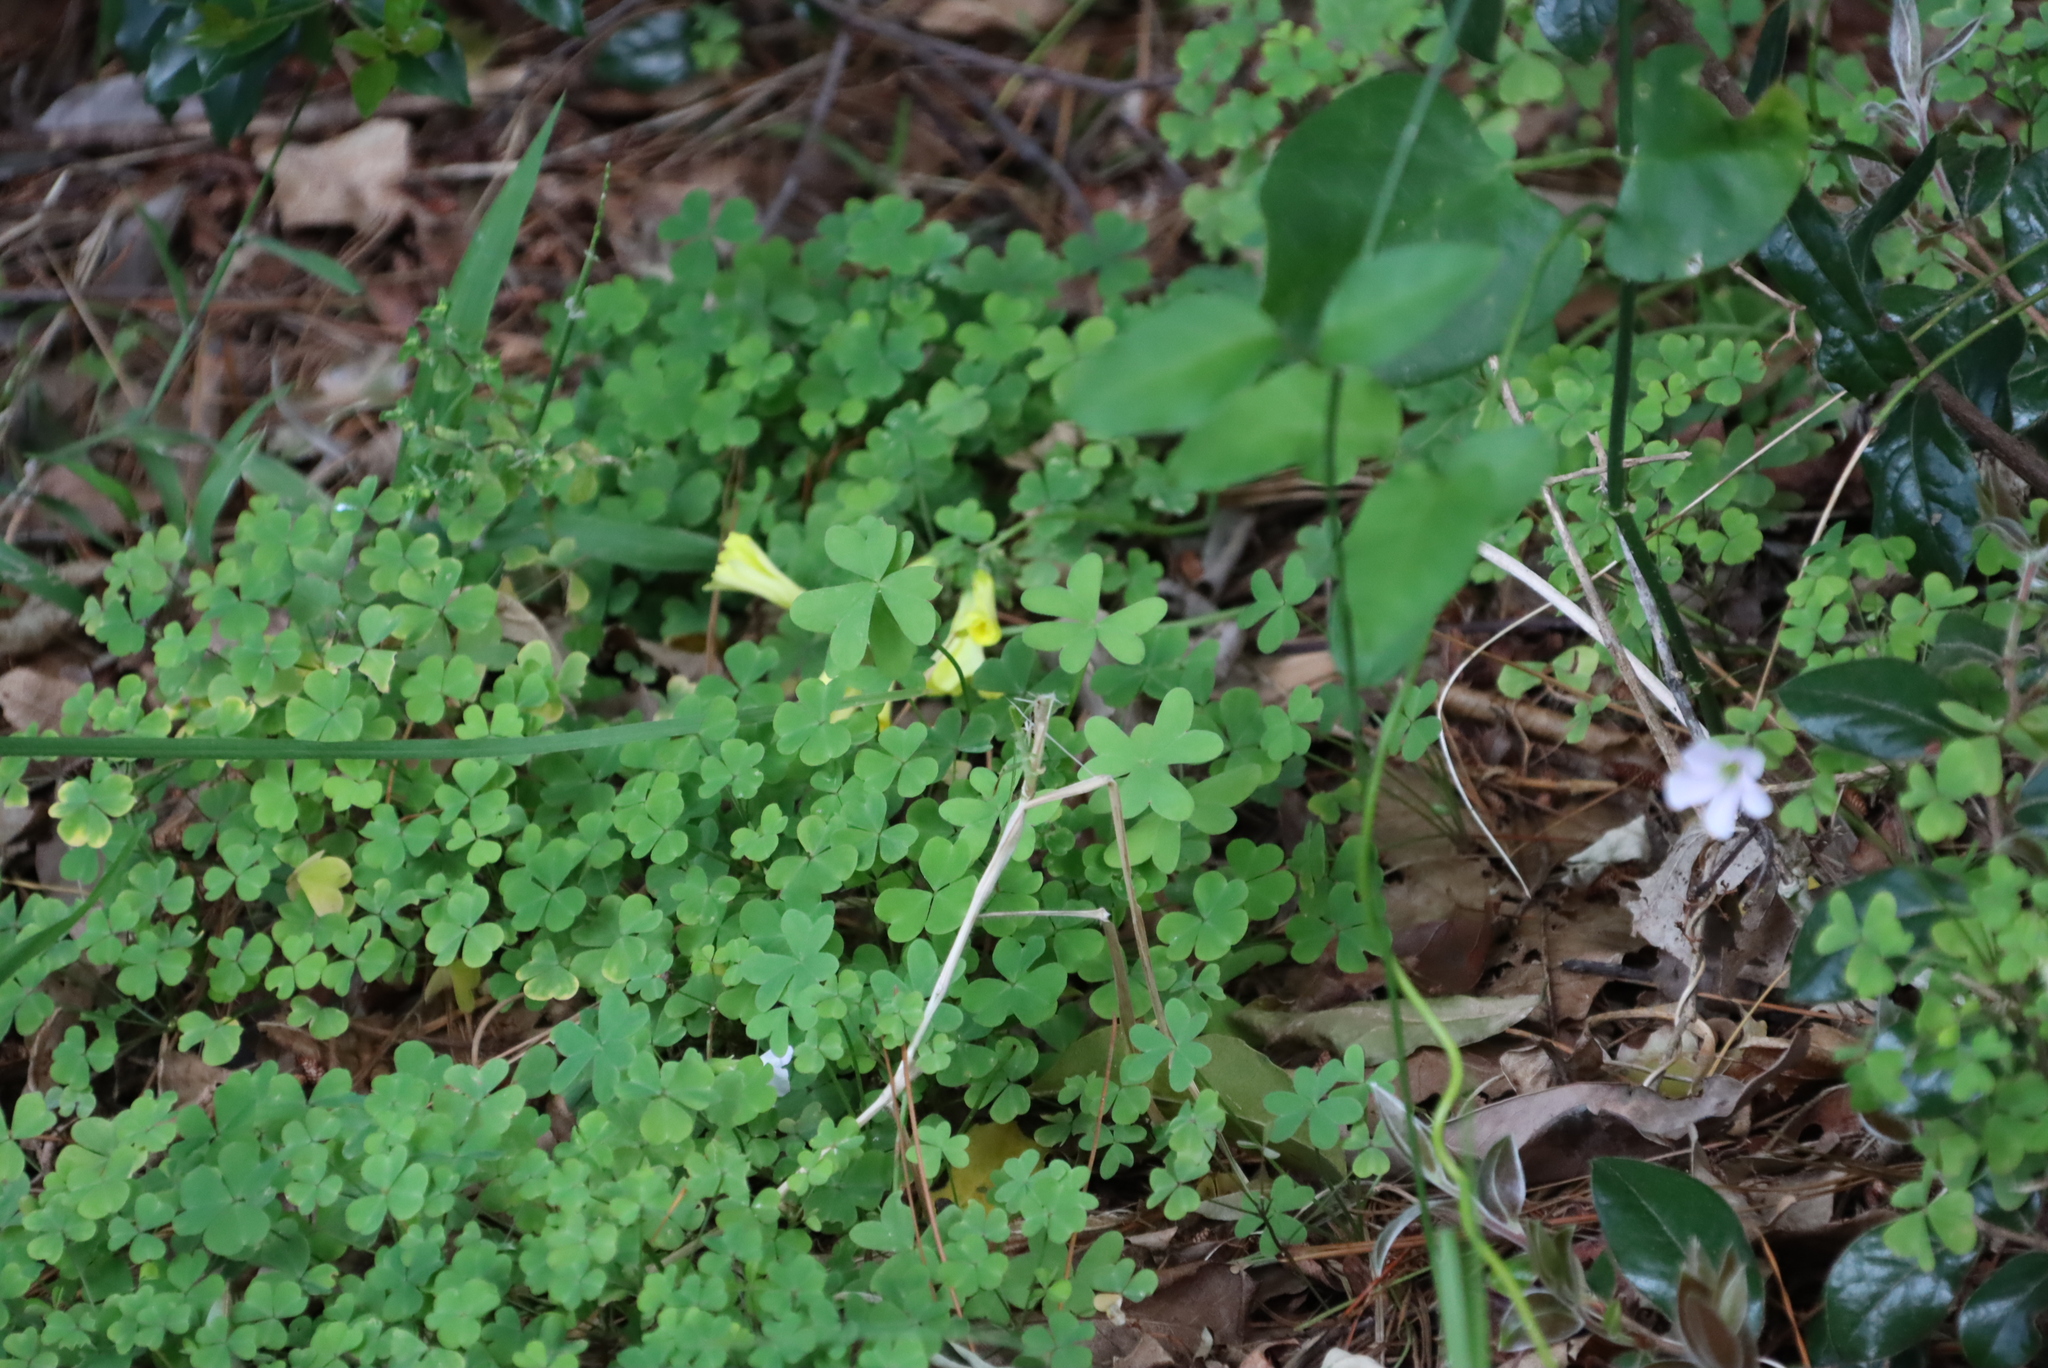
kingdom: Plantae
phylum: Tracheophyta
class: Magnoliopsida
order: Oxalidales
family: Oxalidaceae
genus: Oxalis
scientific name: Oxalis pes-caprae
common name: Bermuda-buttercup
